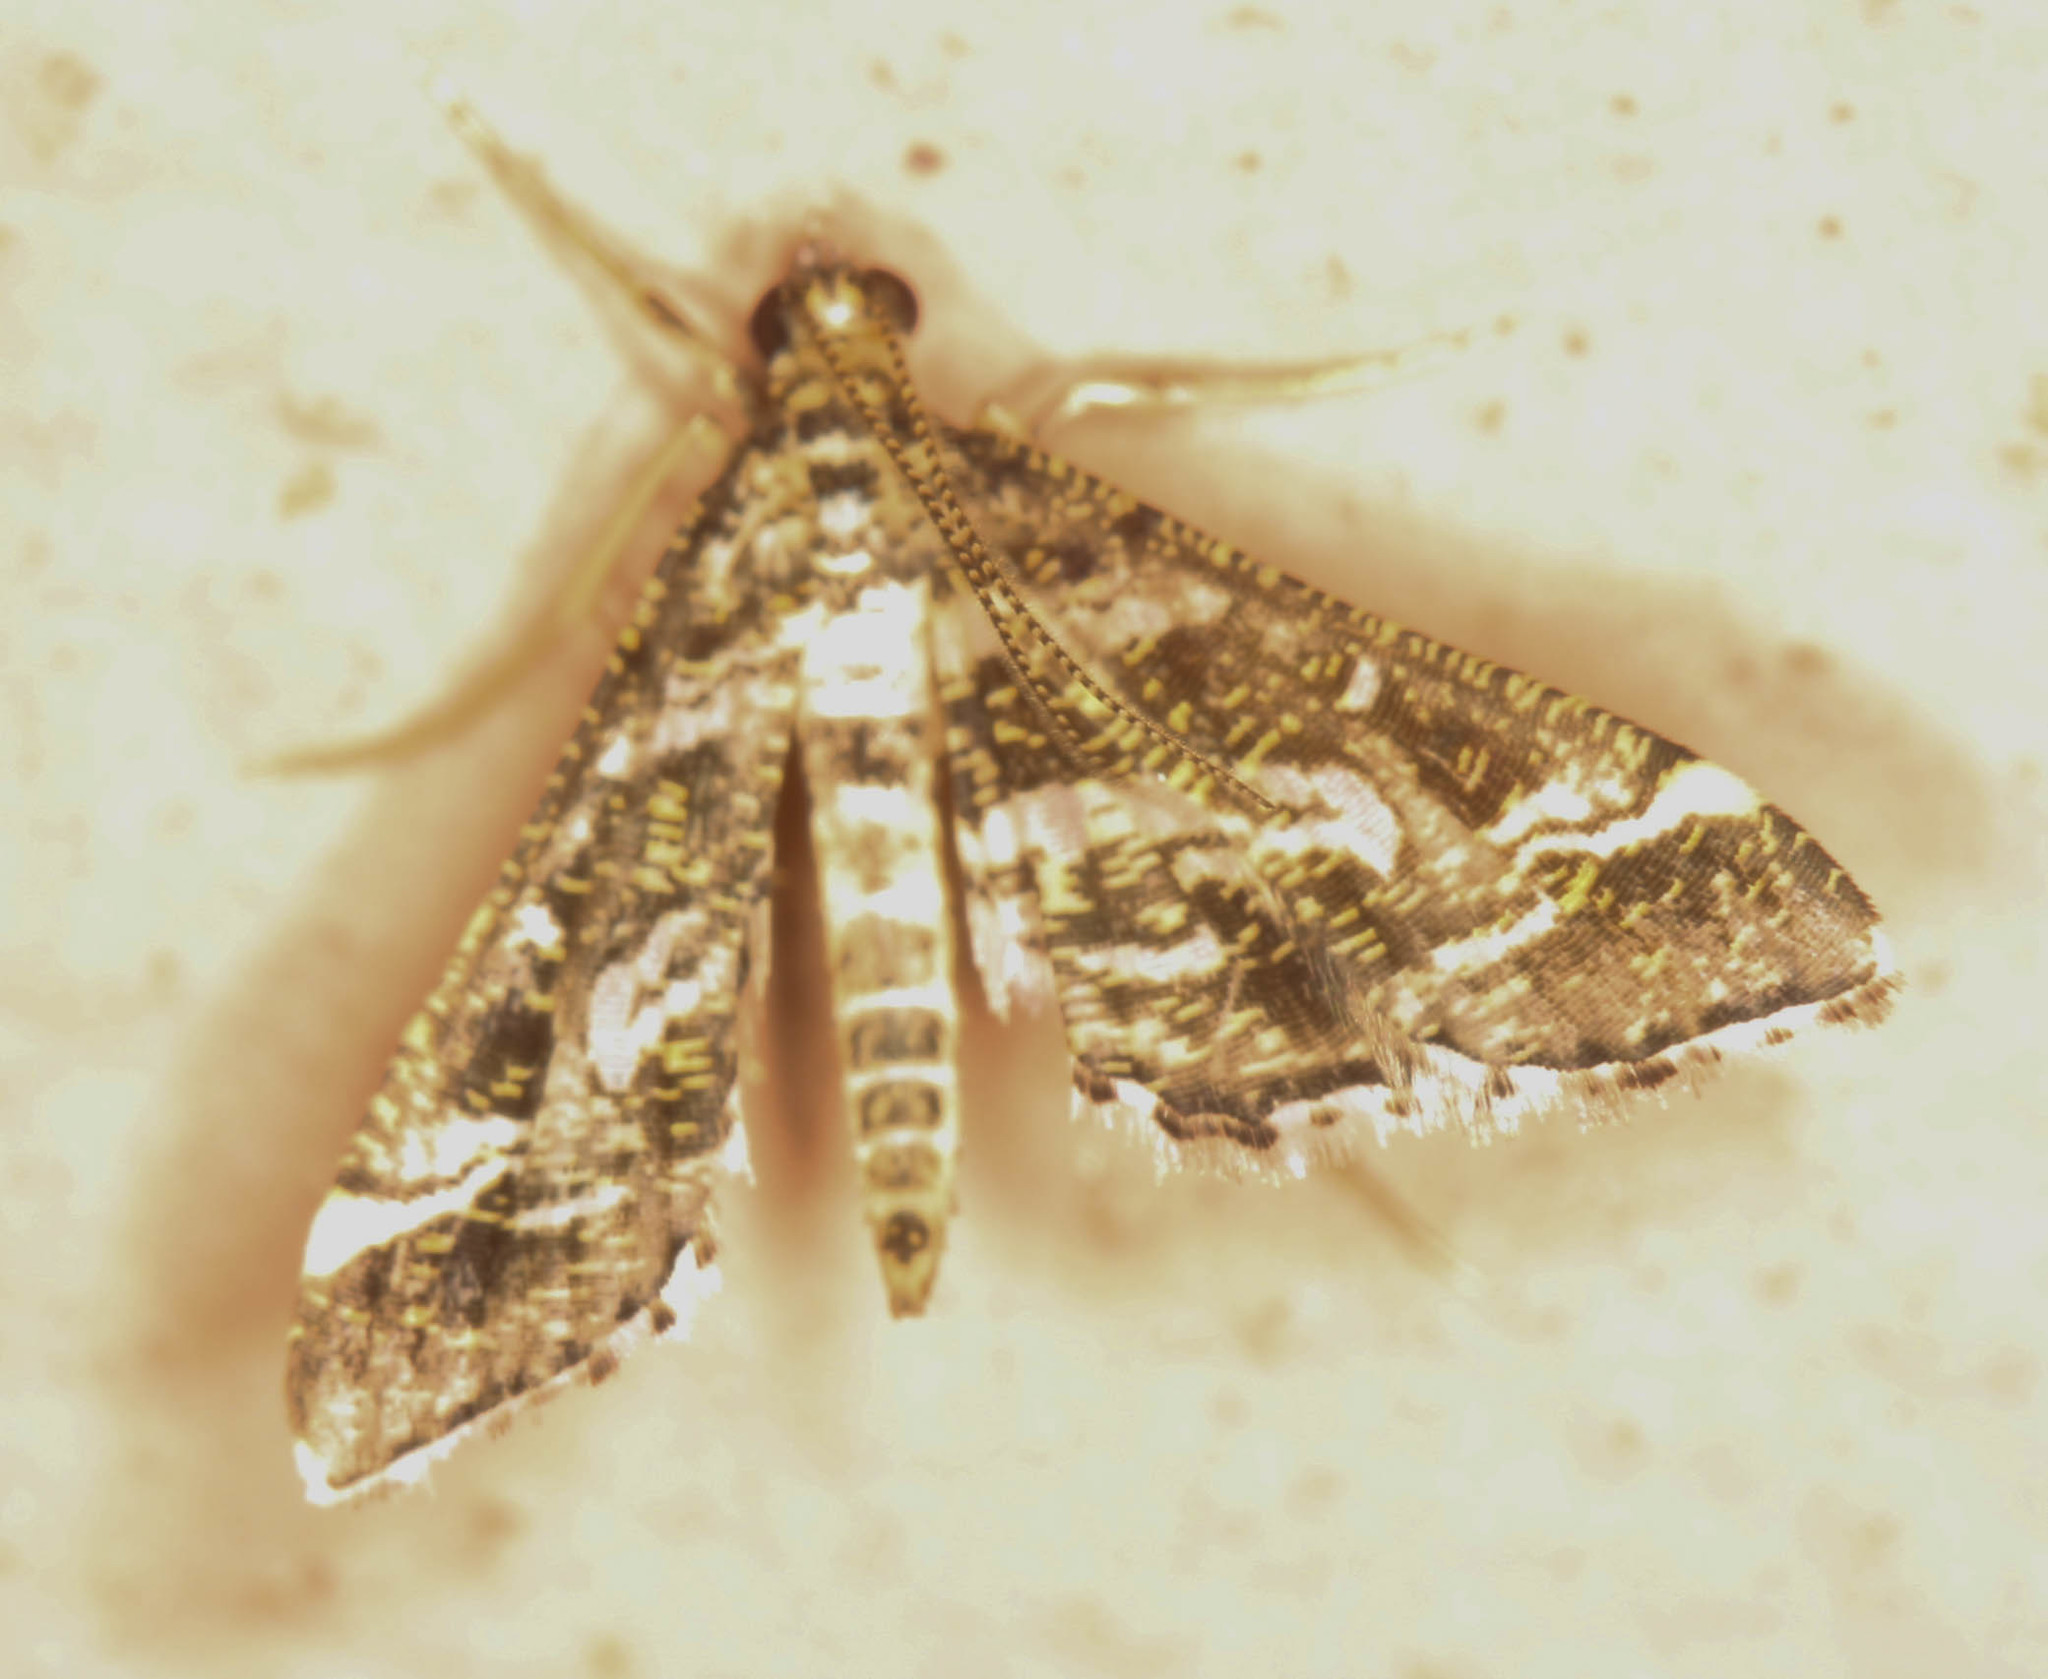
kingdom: Animalia
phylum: Arthropoda
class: Insecta
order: Lepidoptera
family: Crambidae
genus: Diasemiopsis
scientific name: Diasemiopsis ramburialis
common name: Vagrant china-mark
